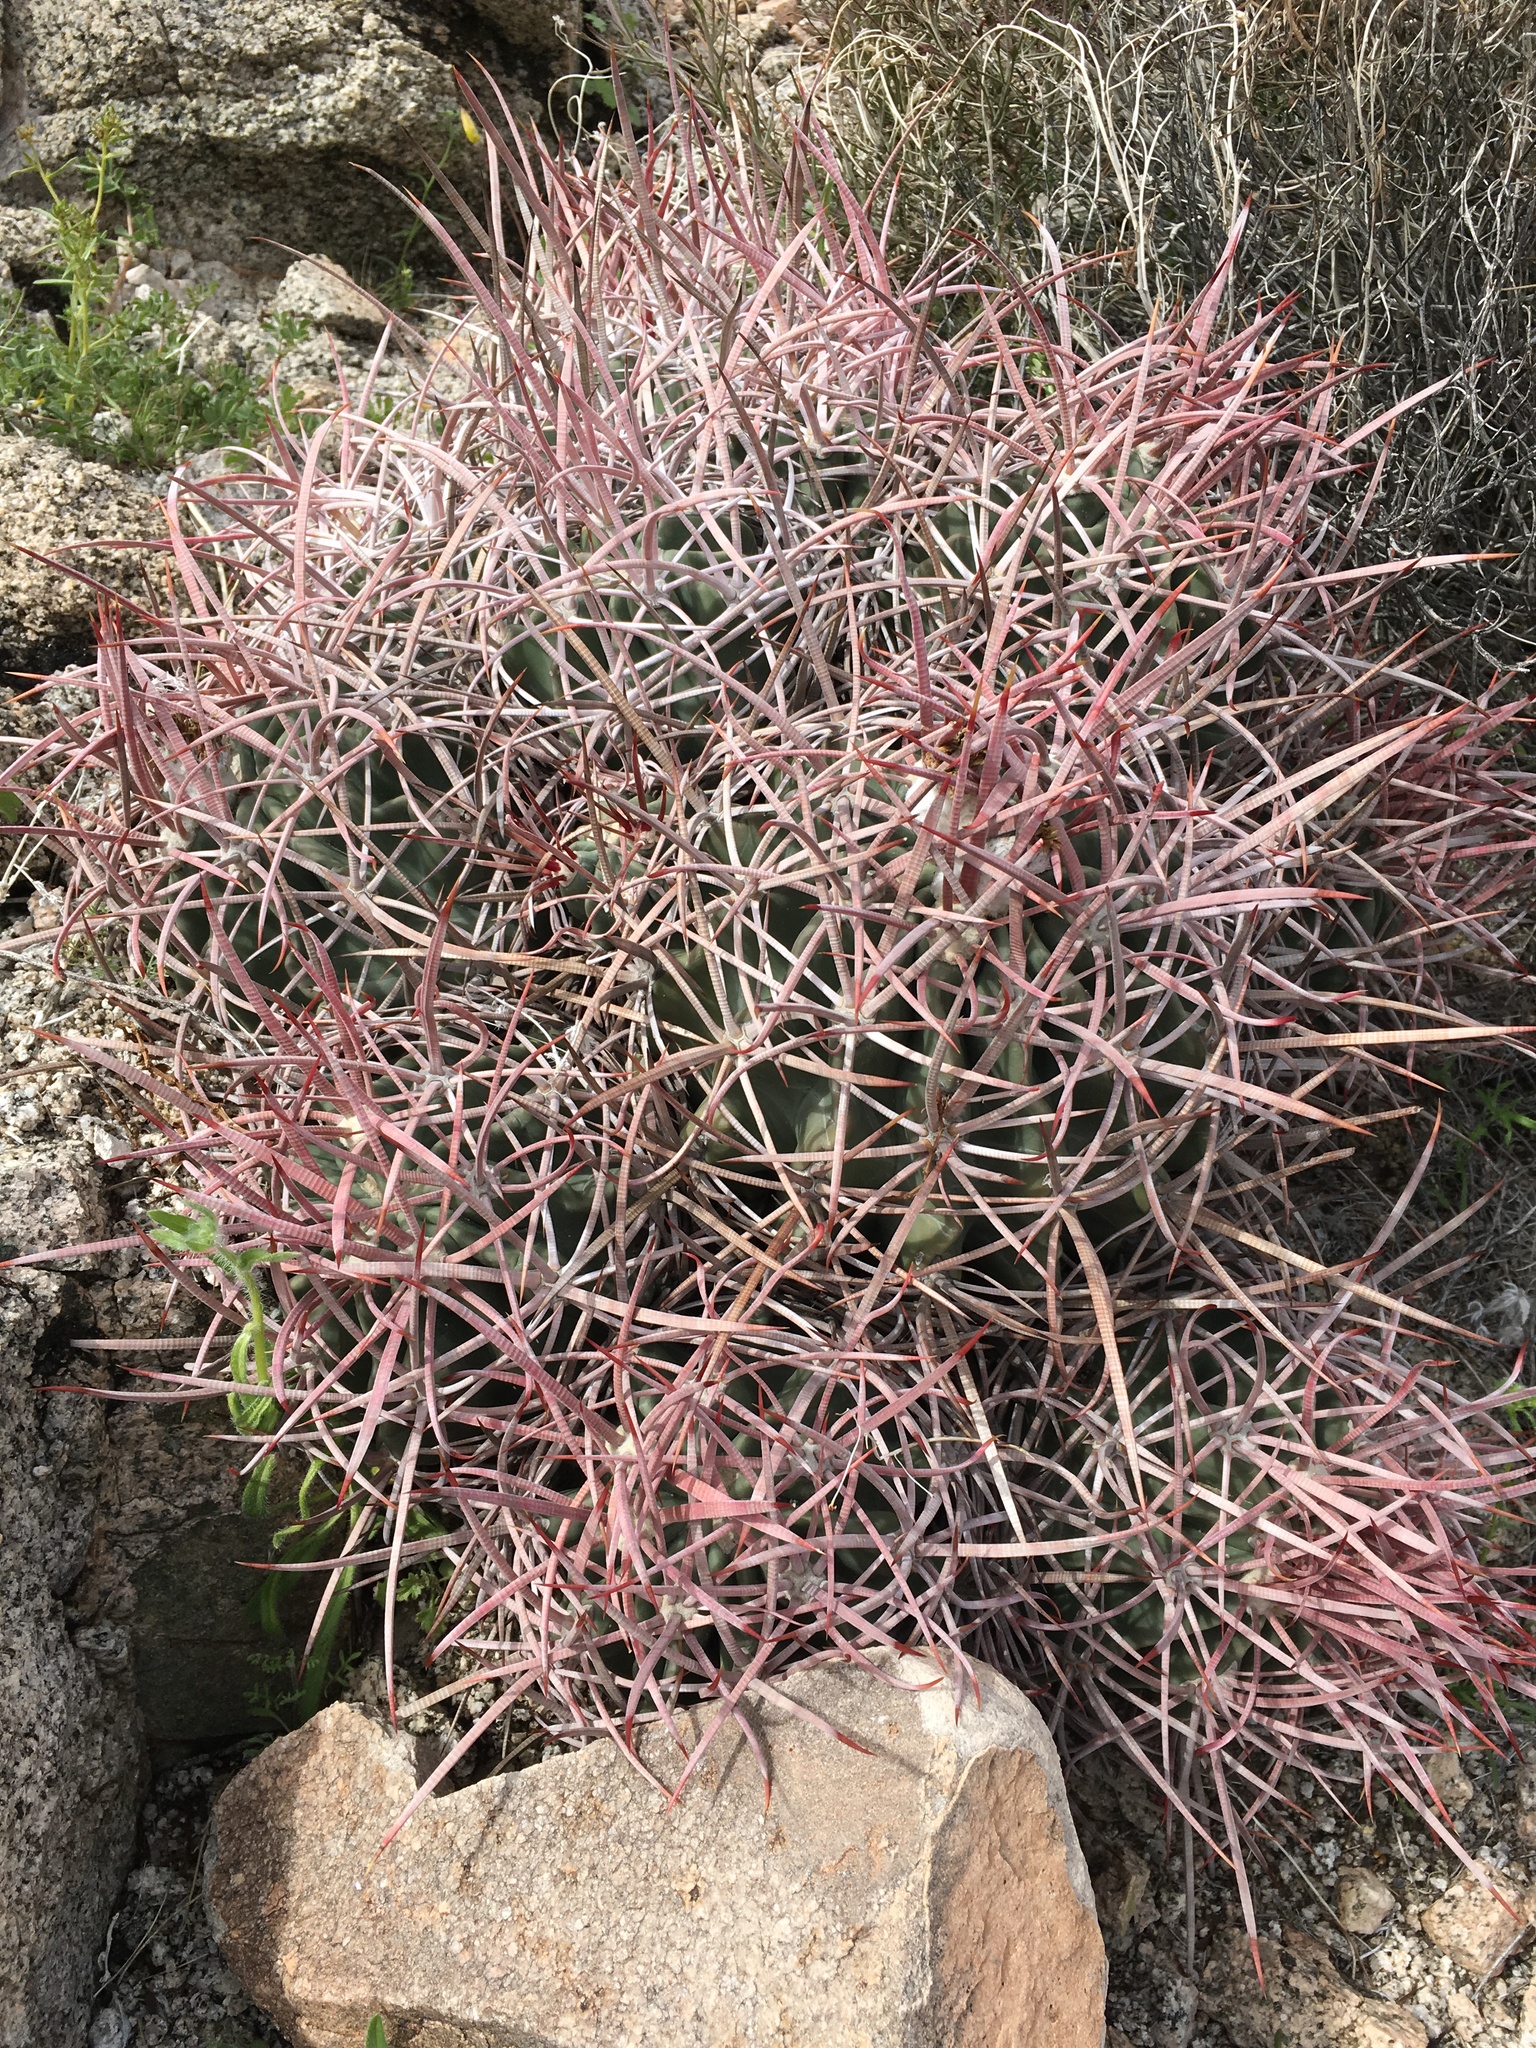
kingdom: Plantae
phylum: Tracheophyta
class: Magnoliopsida
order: Caryophyllales
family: Cactaceae
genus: Echinocactus
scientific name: Echinocactus polycephalus
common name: Cottontop cactus
